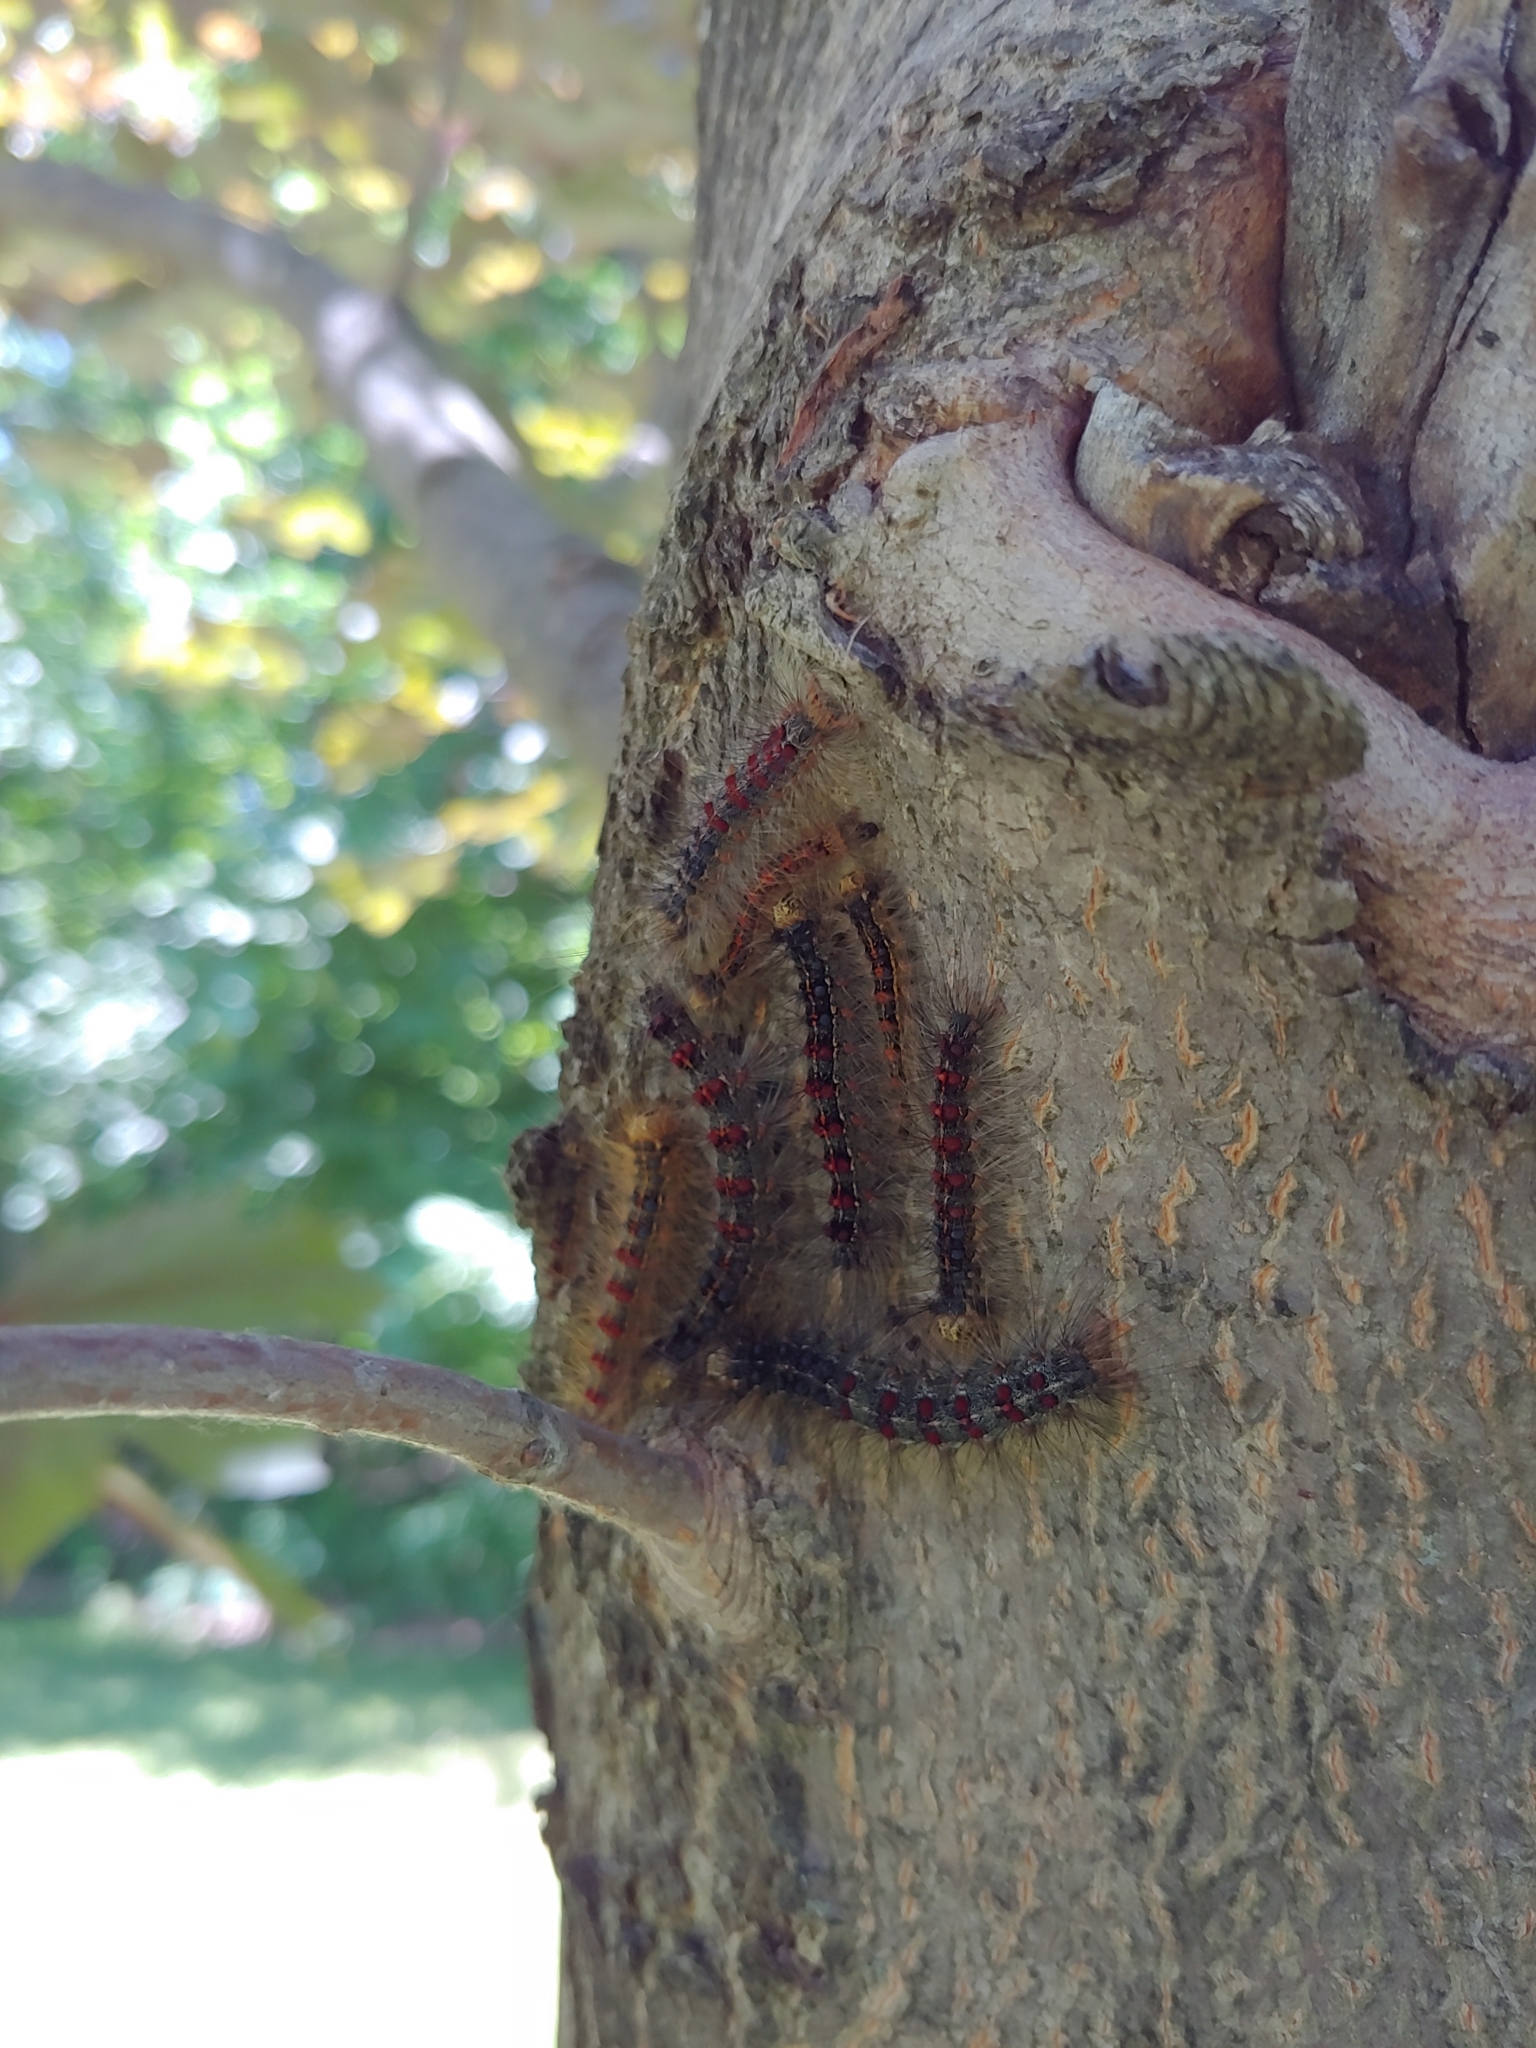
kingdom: Animalia
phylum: Arthropoda
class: Insecta
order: Lepidoptera
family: Erebidae
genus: Lymantria
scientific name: Lymantria dispar
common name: Gypsy moth
